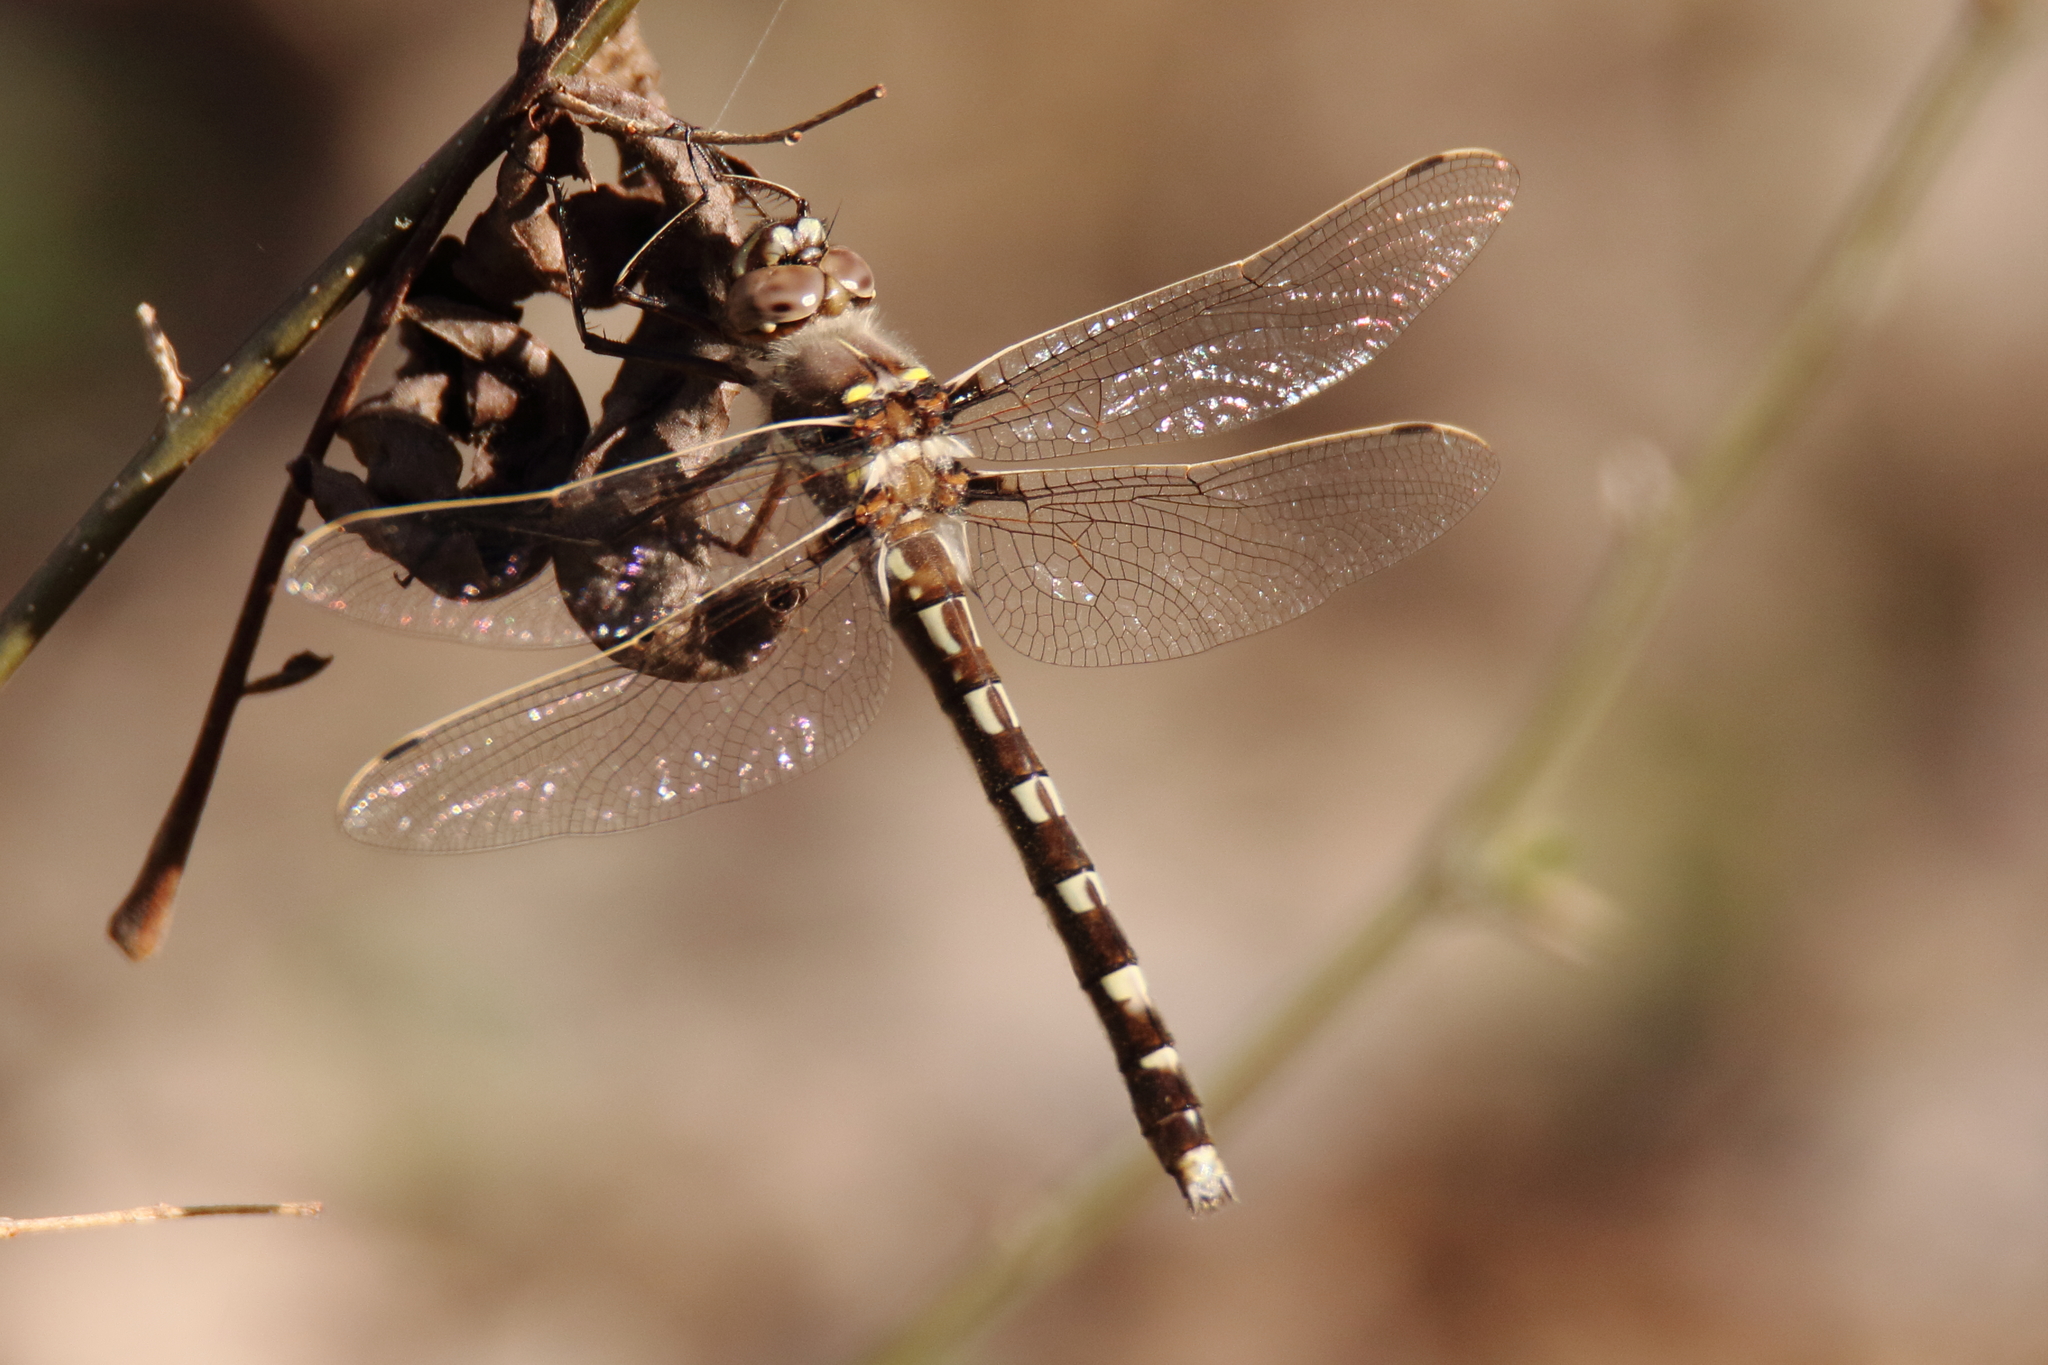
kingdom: Animalia
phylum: Arthropoda
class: Insecta
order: Odonata
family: Macromiidae
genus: Didymops
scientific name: Didymops transversa
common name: Stream cruiser
